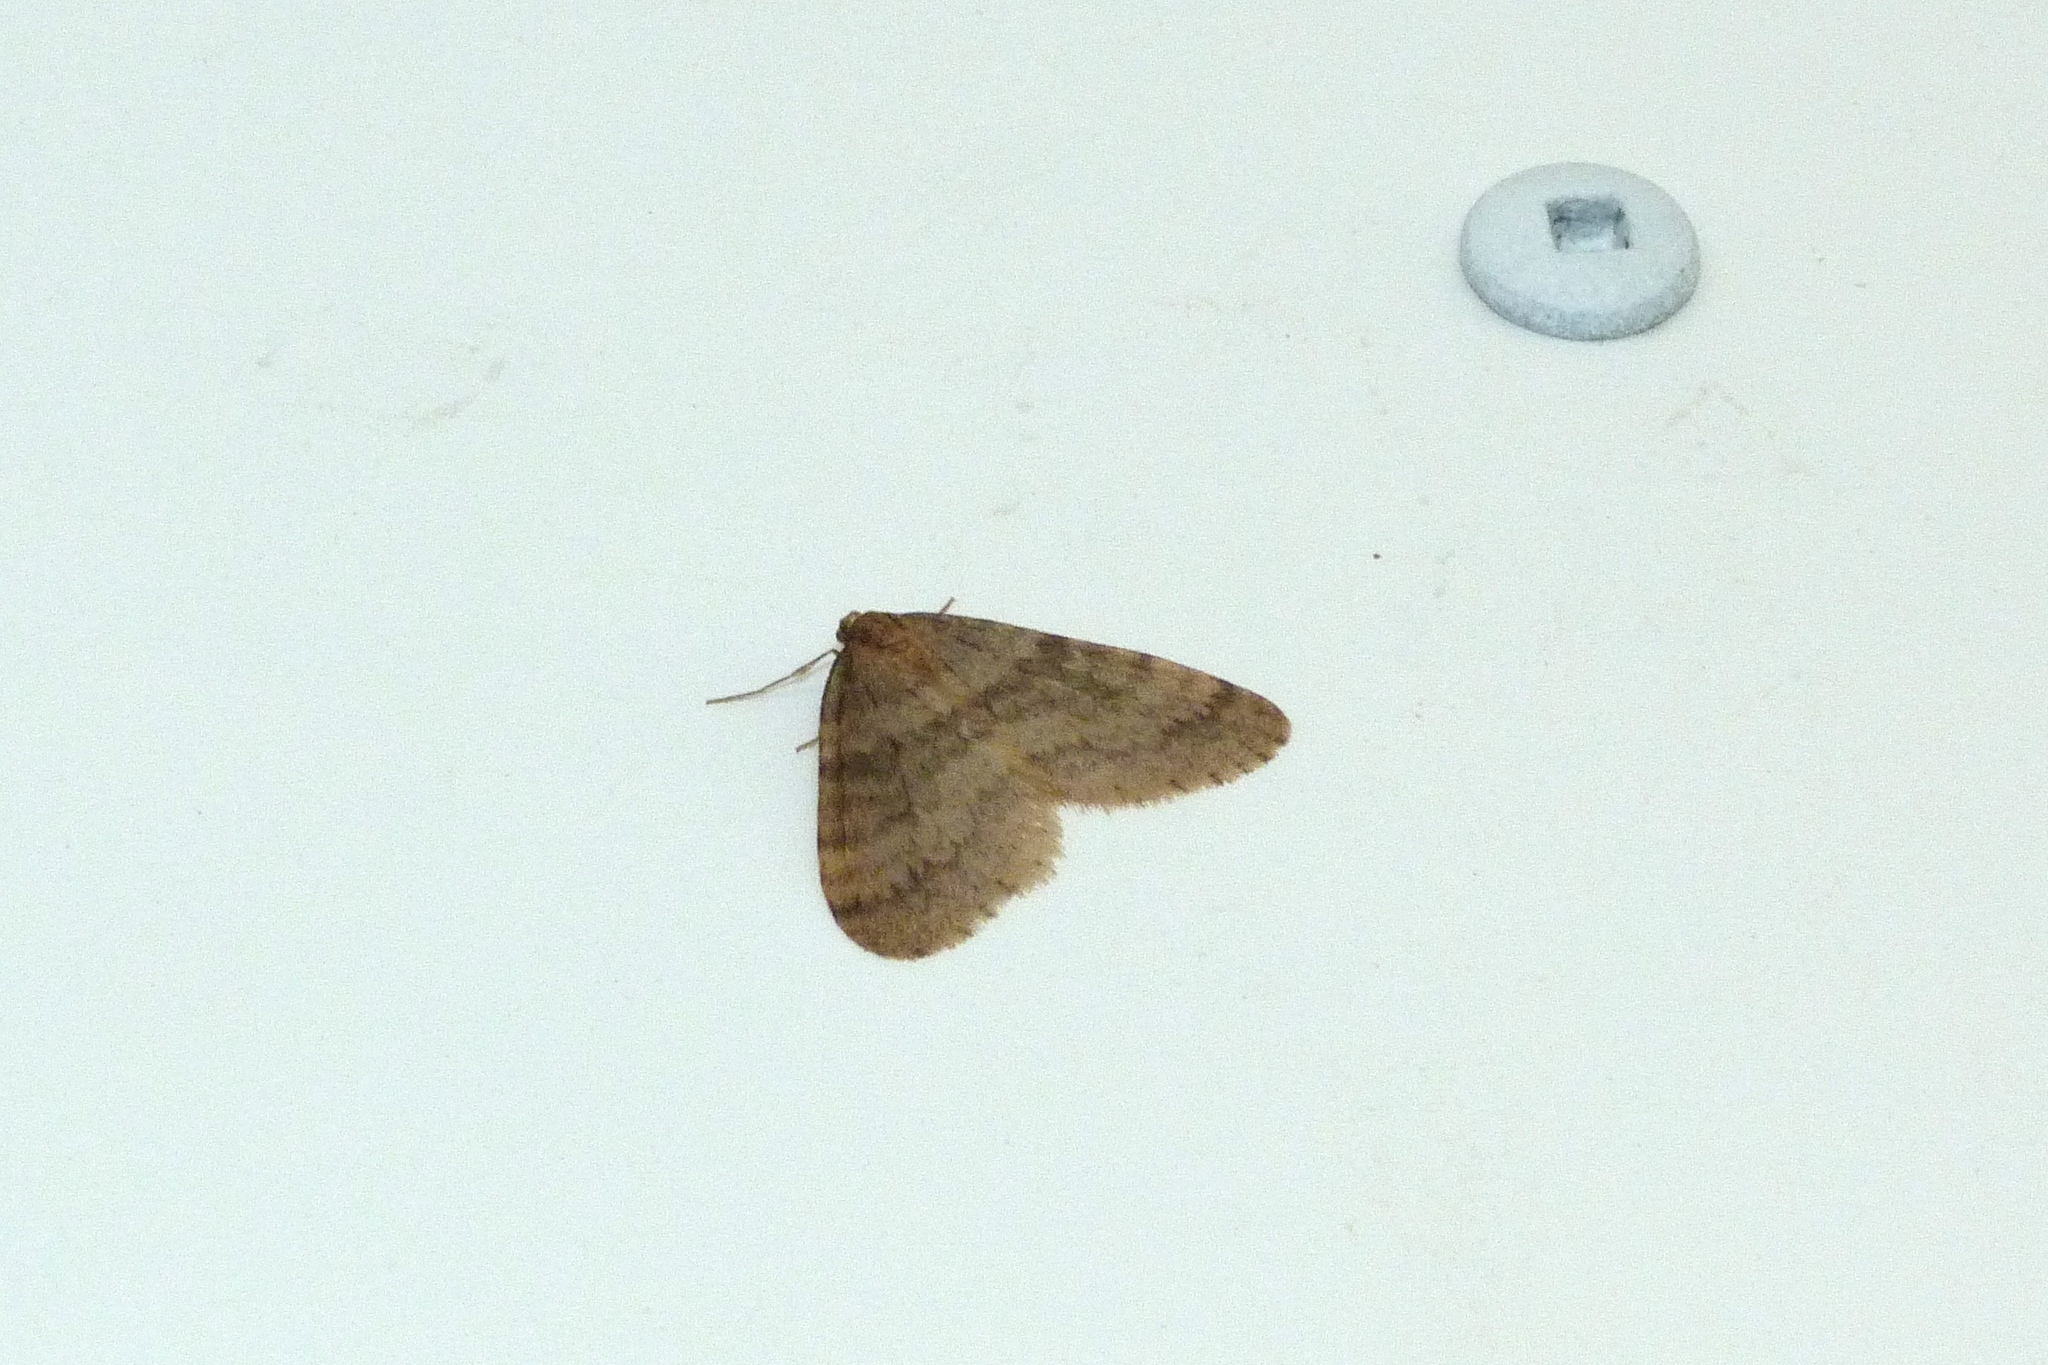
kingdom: Animalia
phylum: Arthropoda
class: Insecta
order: Lepidoptera
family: Geometridae
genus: Operophtera
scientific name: Operophtera brumata
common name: Winter moth
